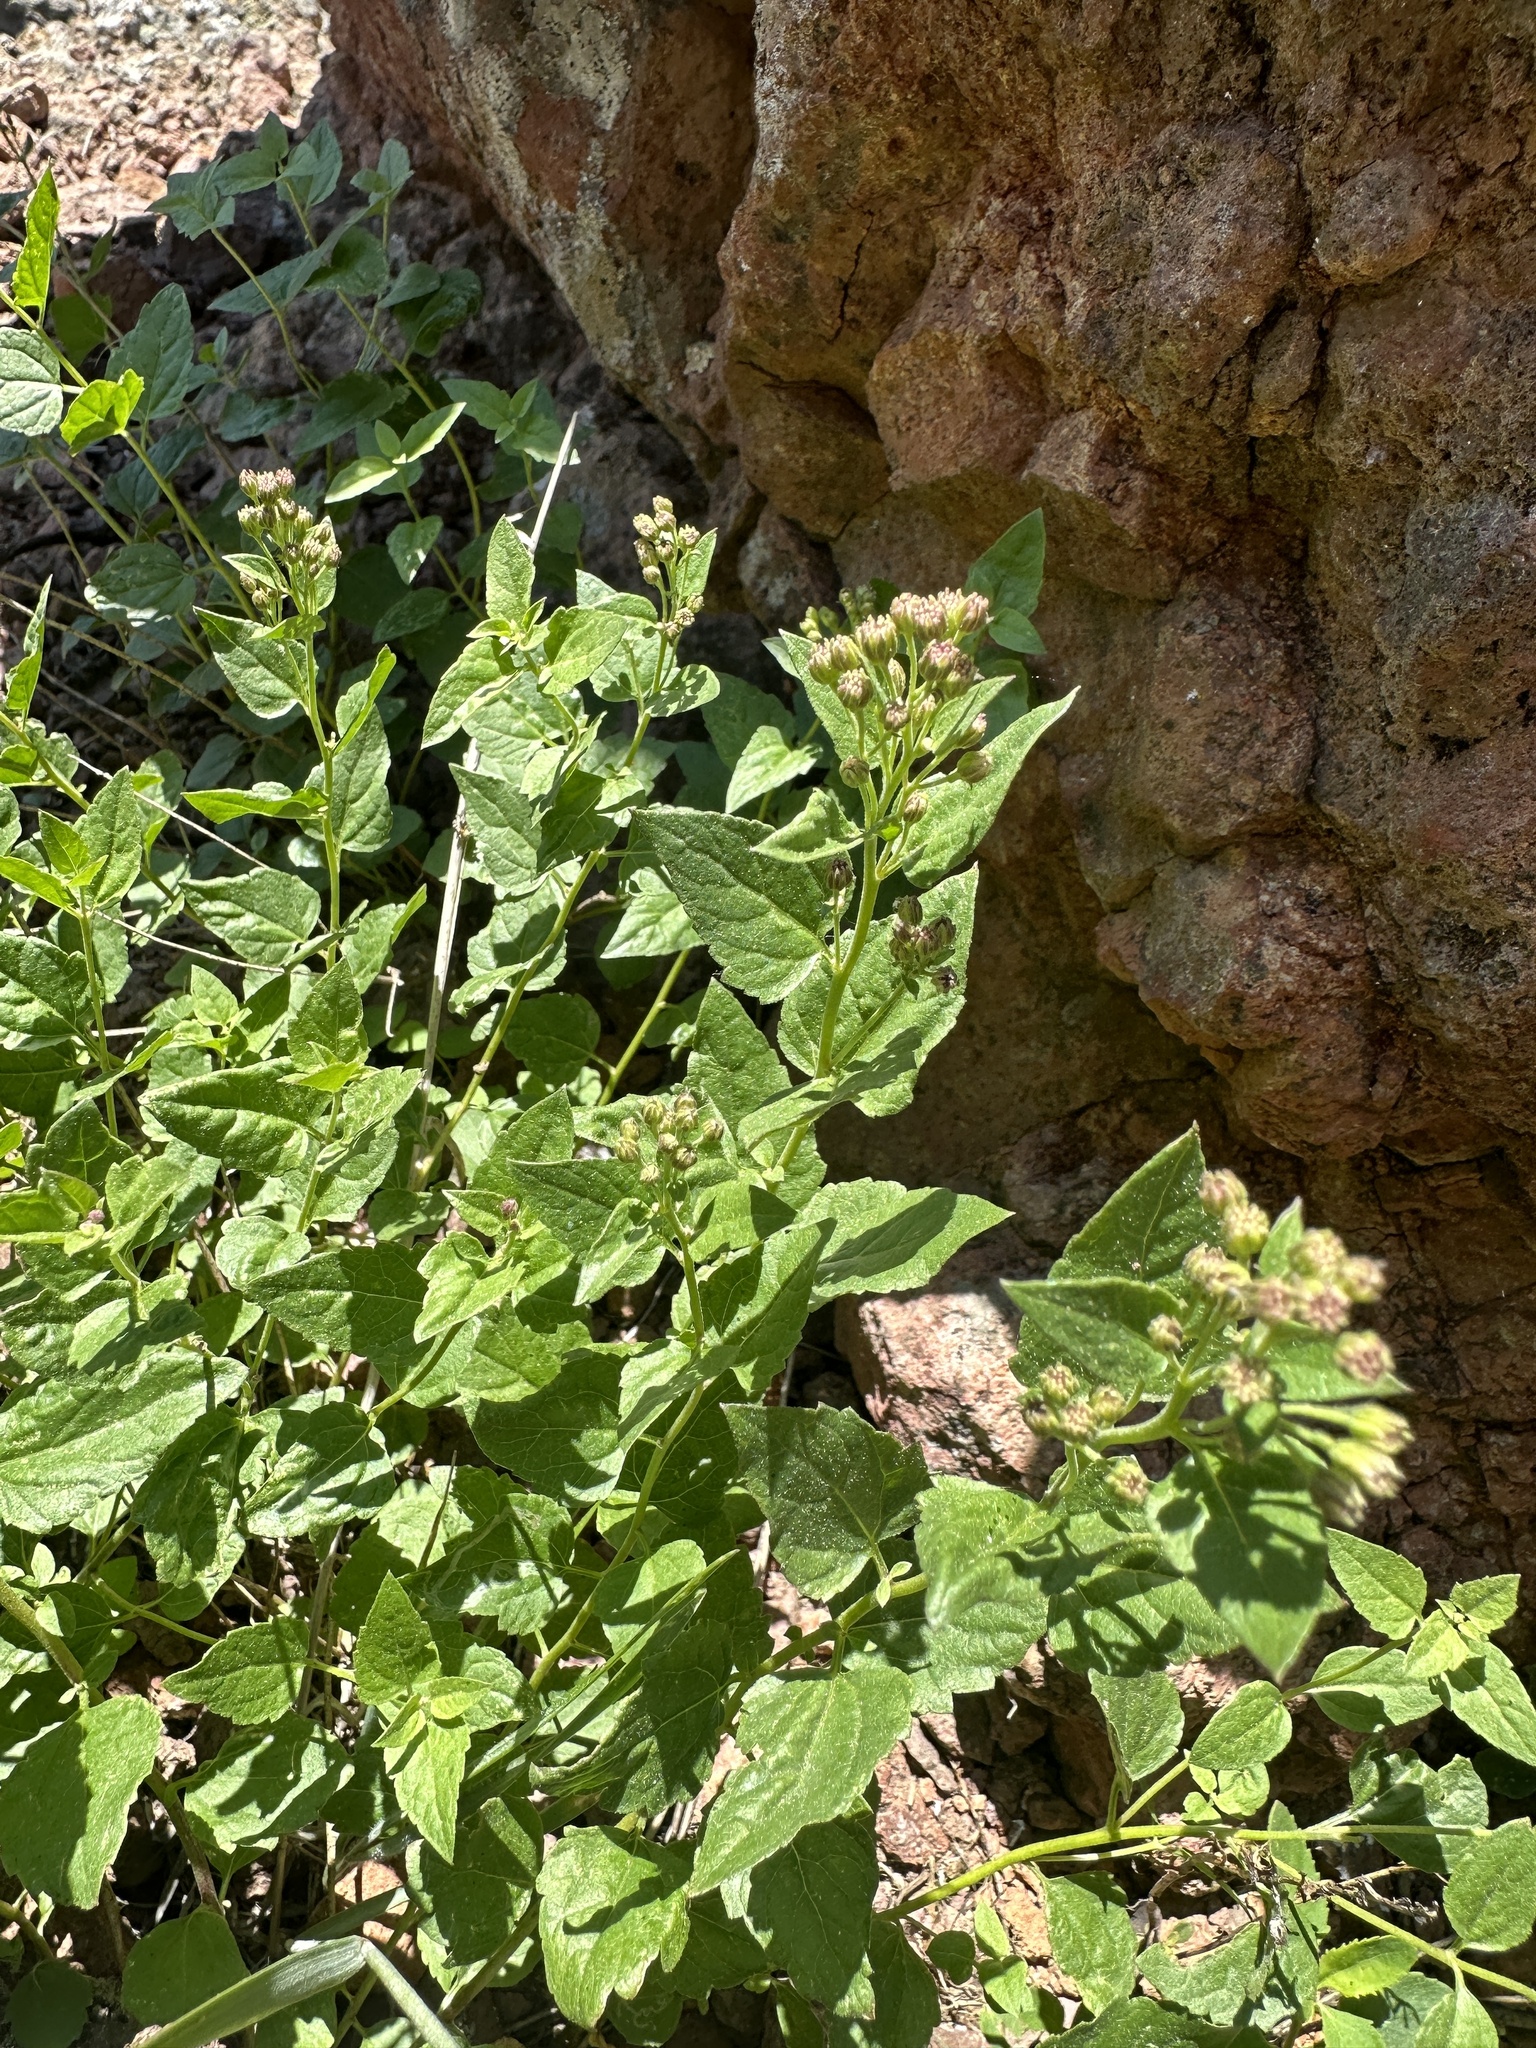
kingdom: Plantae
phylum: Tracheophyta
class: Magnoliopsida
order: Asterales
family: Asteraceae
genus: Ageratina
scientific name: Ageratina occidentalis
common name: Western snakeroot
